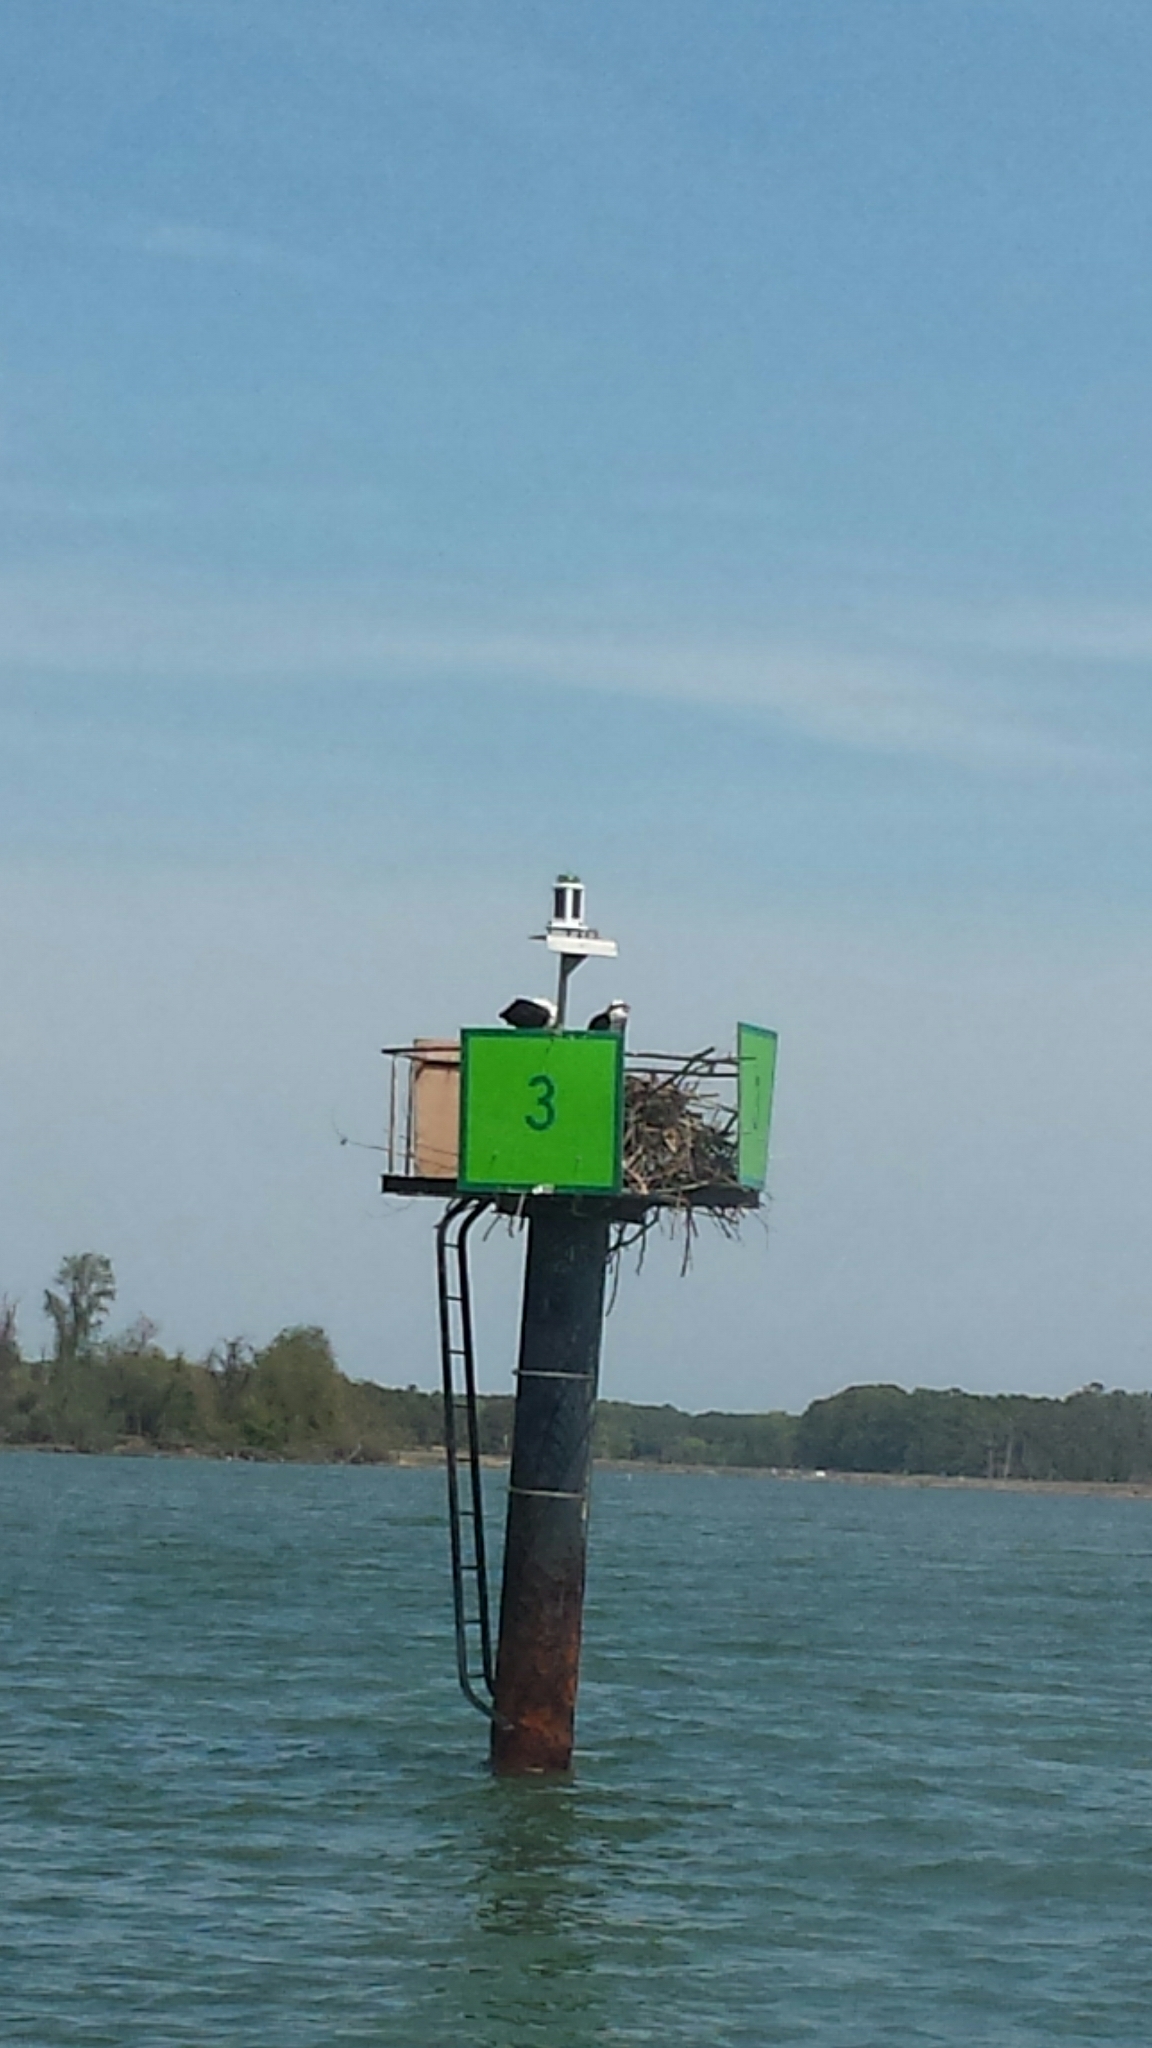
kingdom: Animalia
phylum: Chordata
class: Aves
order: Accipitriformes
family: Pandionidae
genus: Pandion
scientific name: Pandion haliaetus
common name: Osprey
